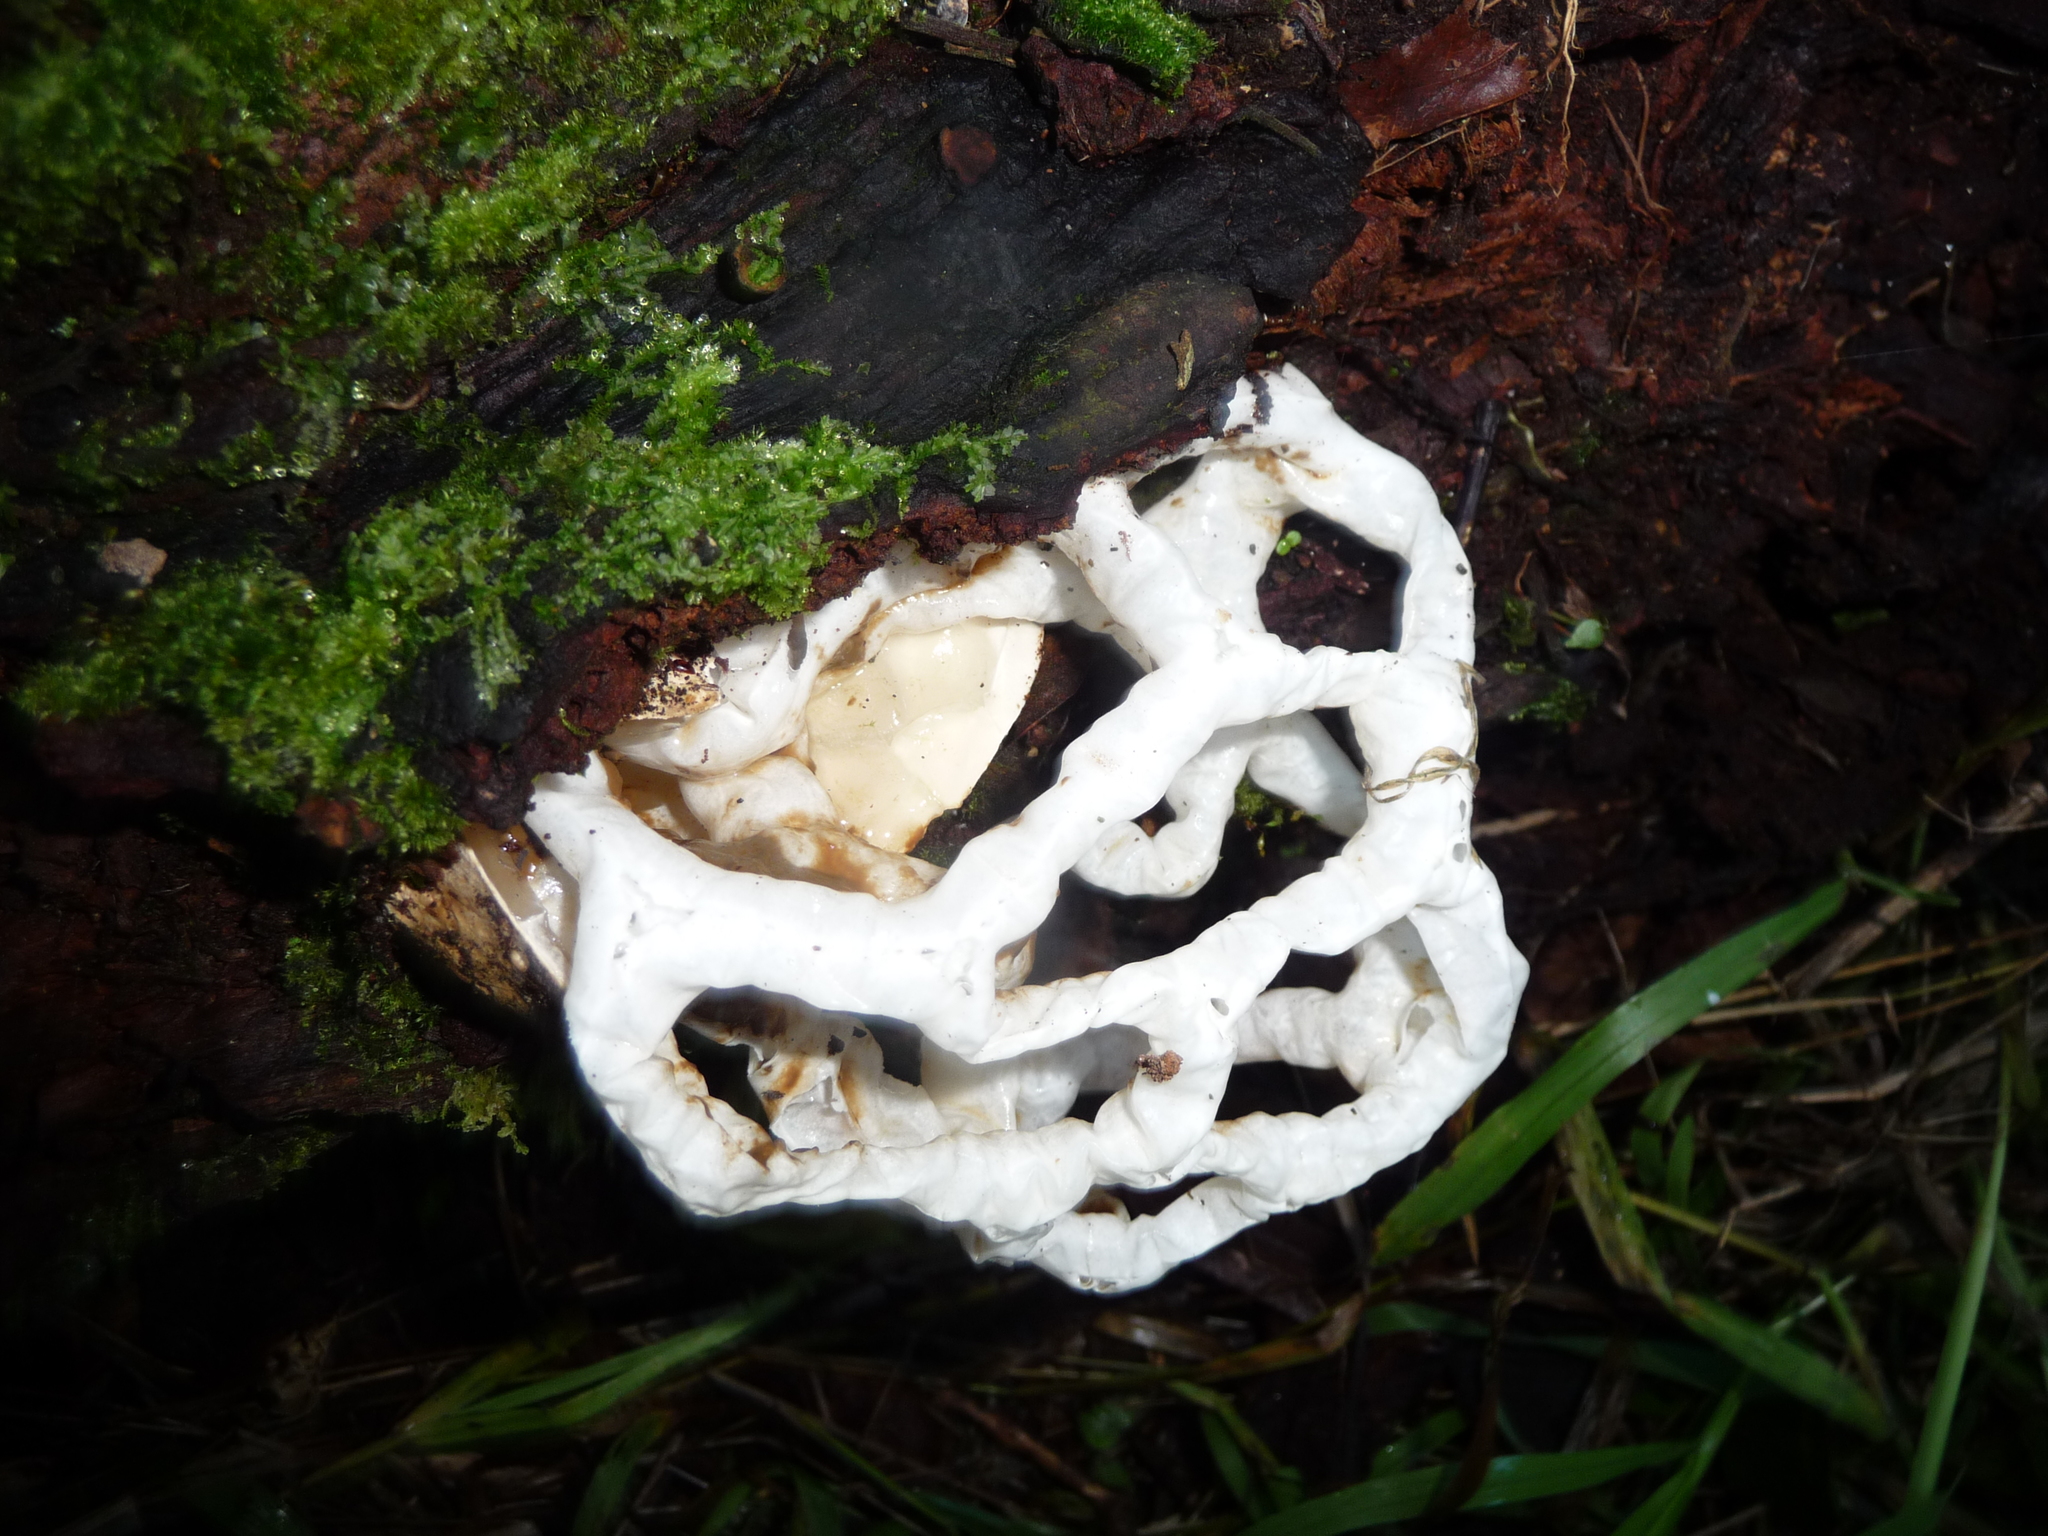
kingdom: Fungi
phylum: Basidiomycota
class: Agaricomycetes
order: Phallales
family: Phallaceae
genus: Ileodictyon
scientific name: Ileodictyon cibarium
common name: Basket fungus
